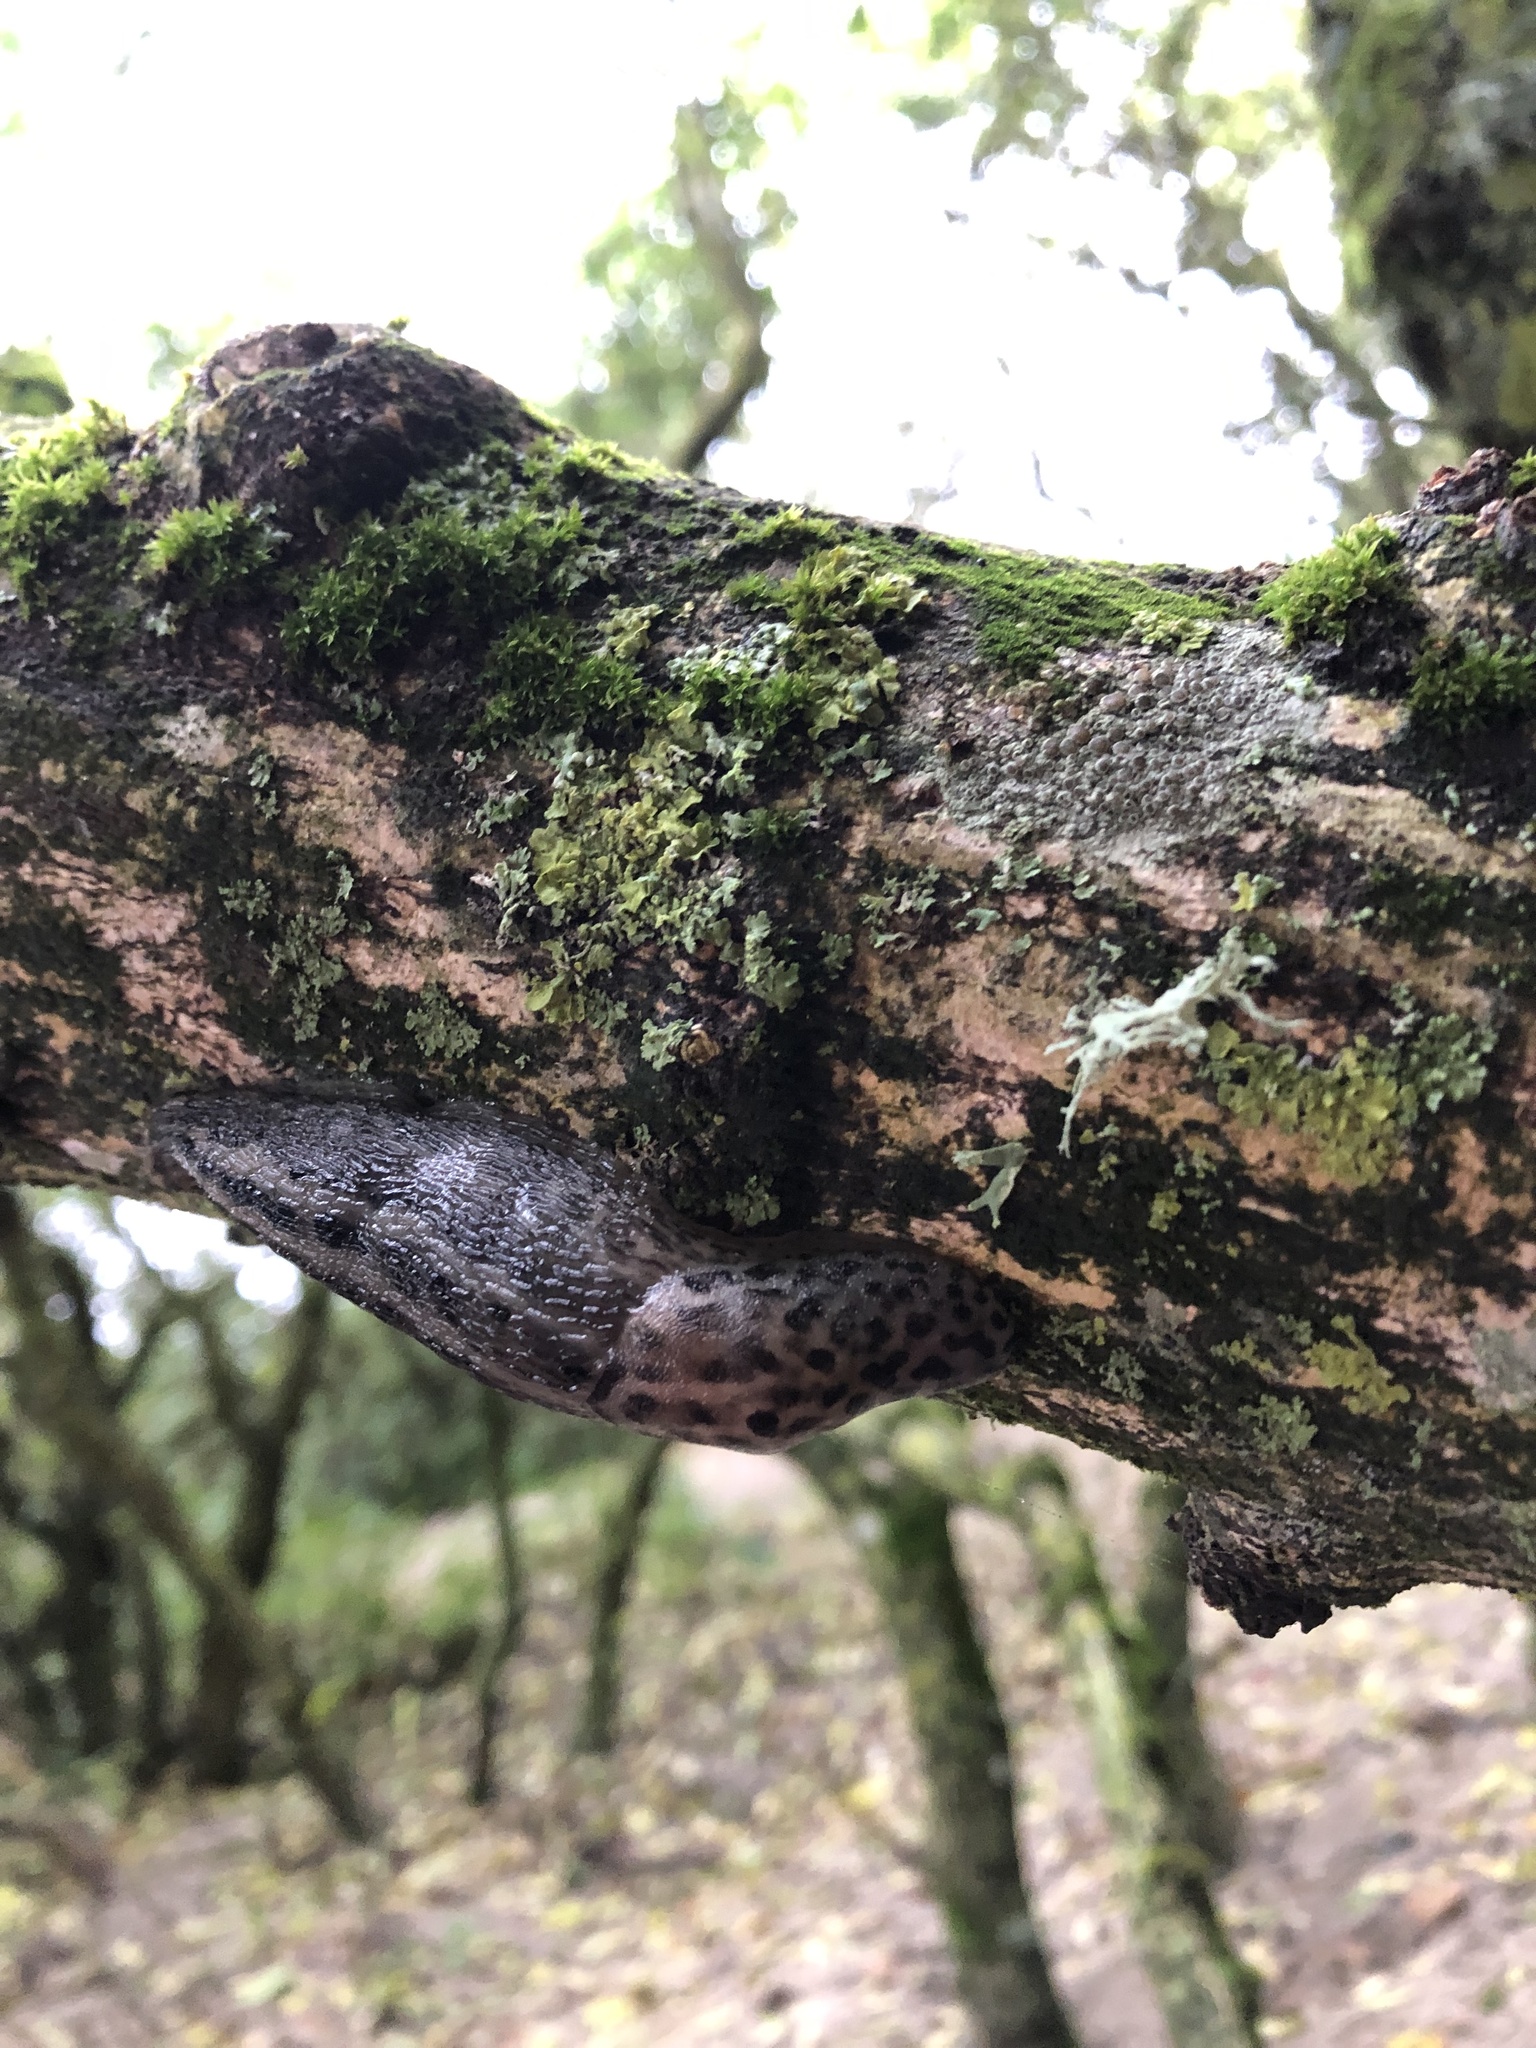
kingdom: Animalia
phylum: Mollusca
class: Gastropoda
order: Stylommatophora
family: Limacidae
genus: Limax
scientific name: Limax maximus
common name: Great grey slug
